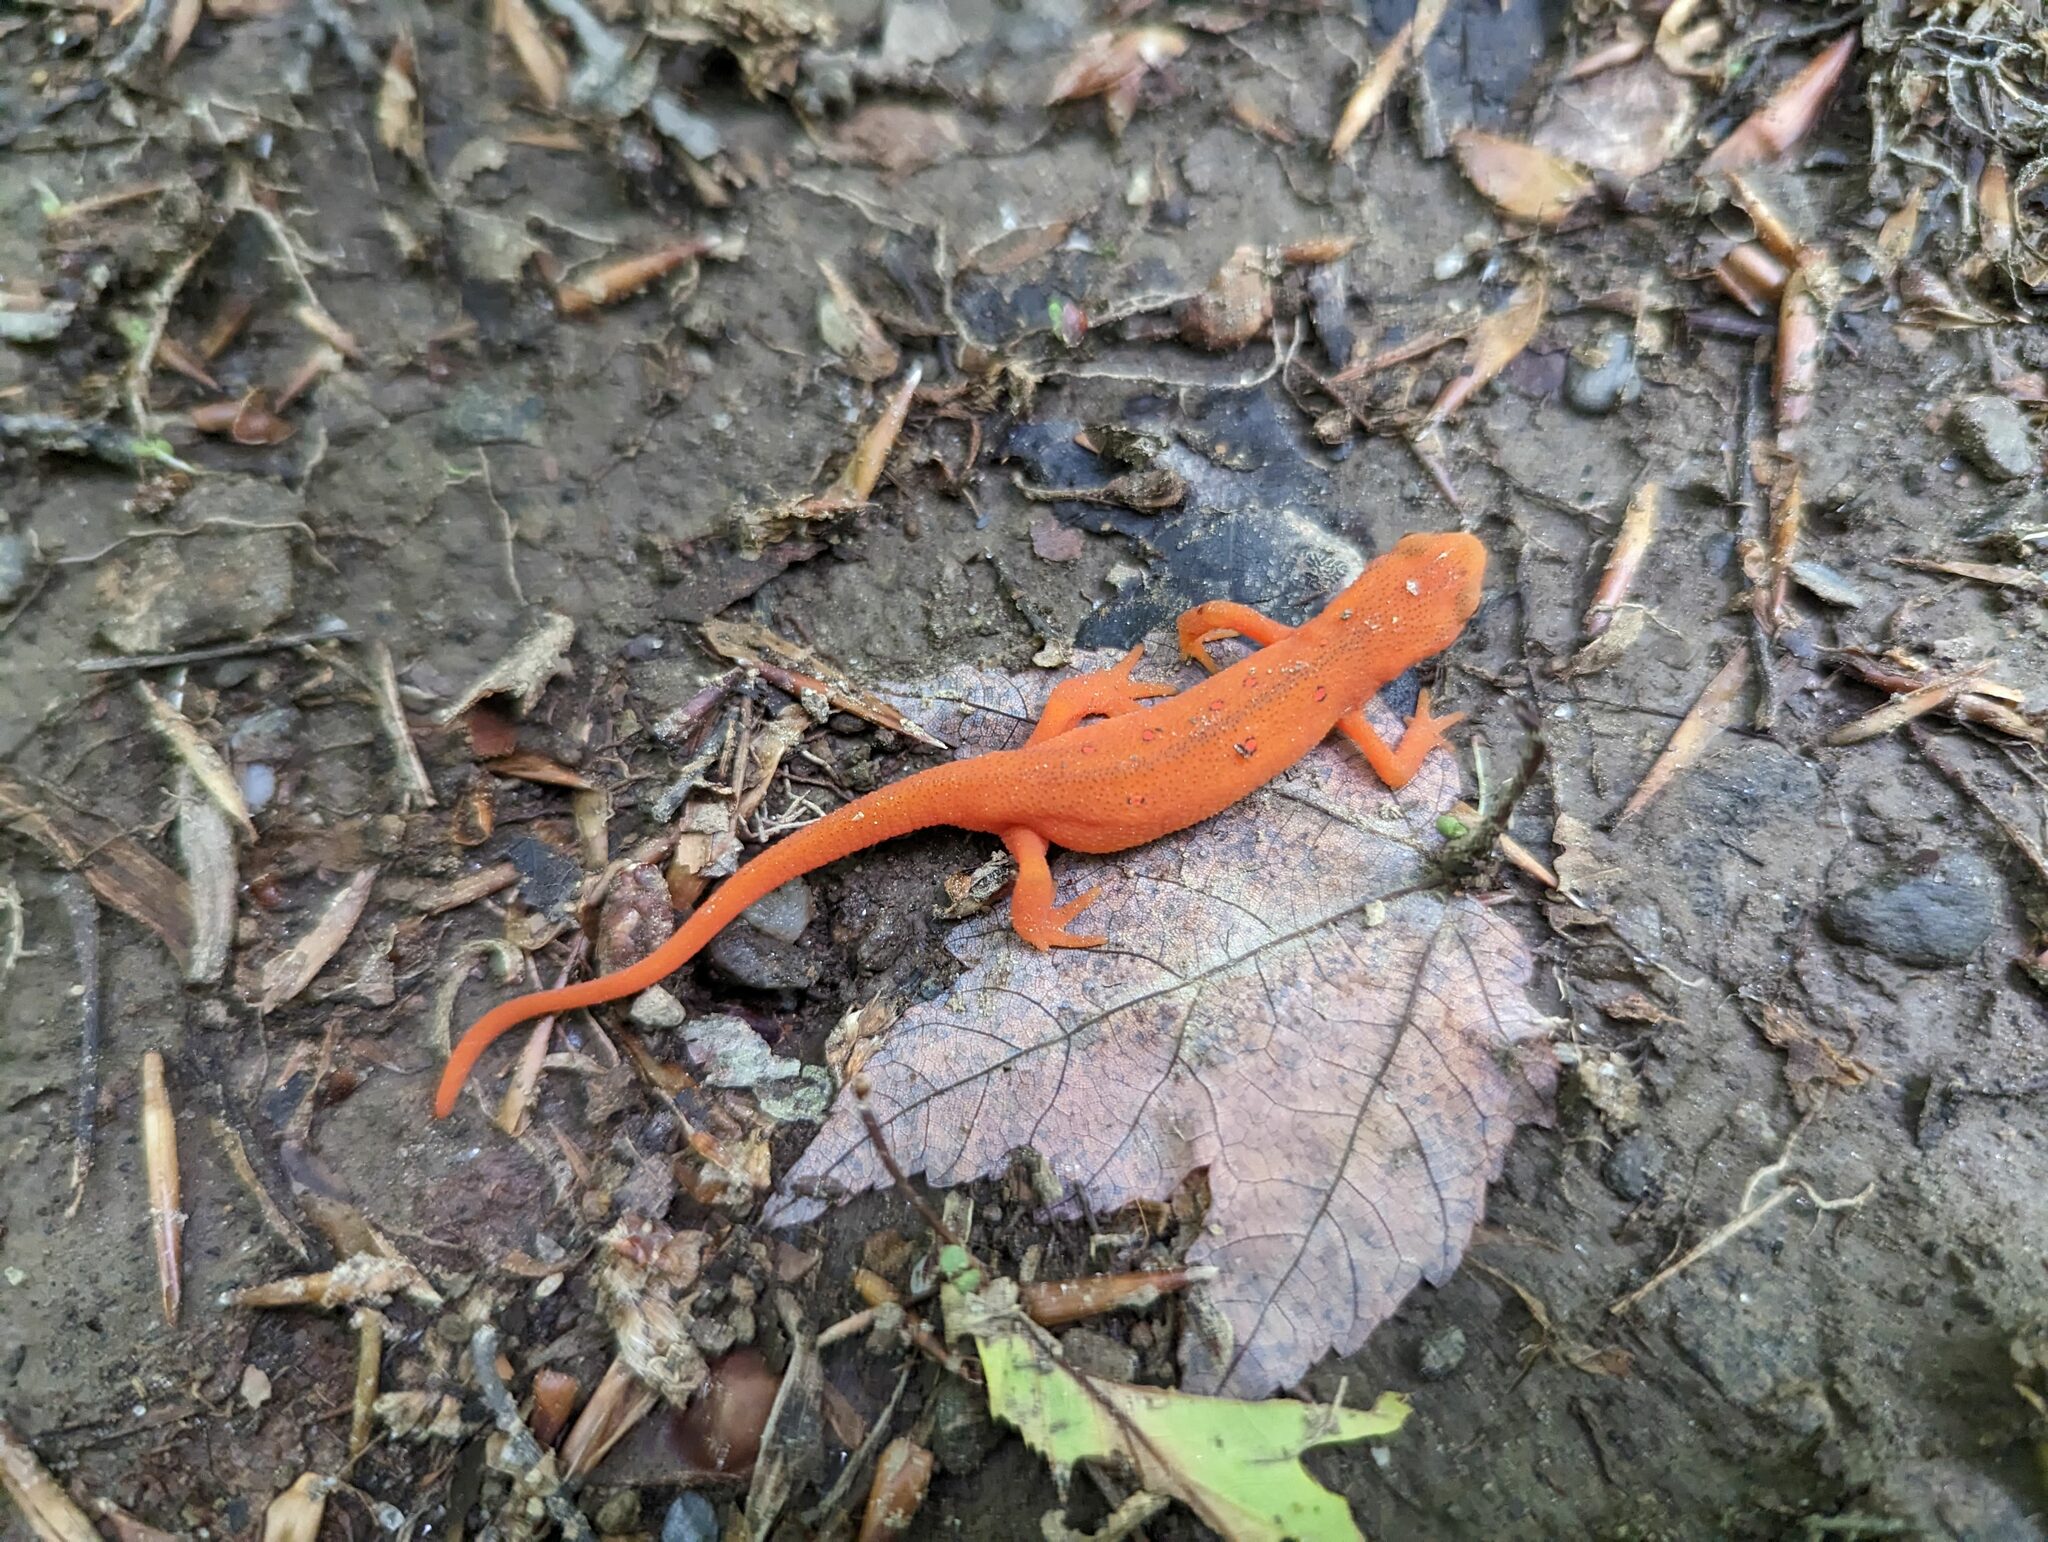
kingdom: Animalia
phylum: Chordata
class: Amphibia
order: Caudata
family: Salamandridae
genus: Notophthalmus
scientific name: Notophthalmus viridescens
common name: Eastern newt
